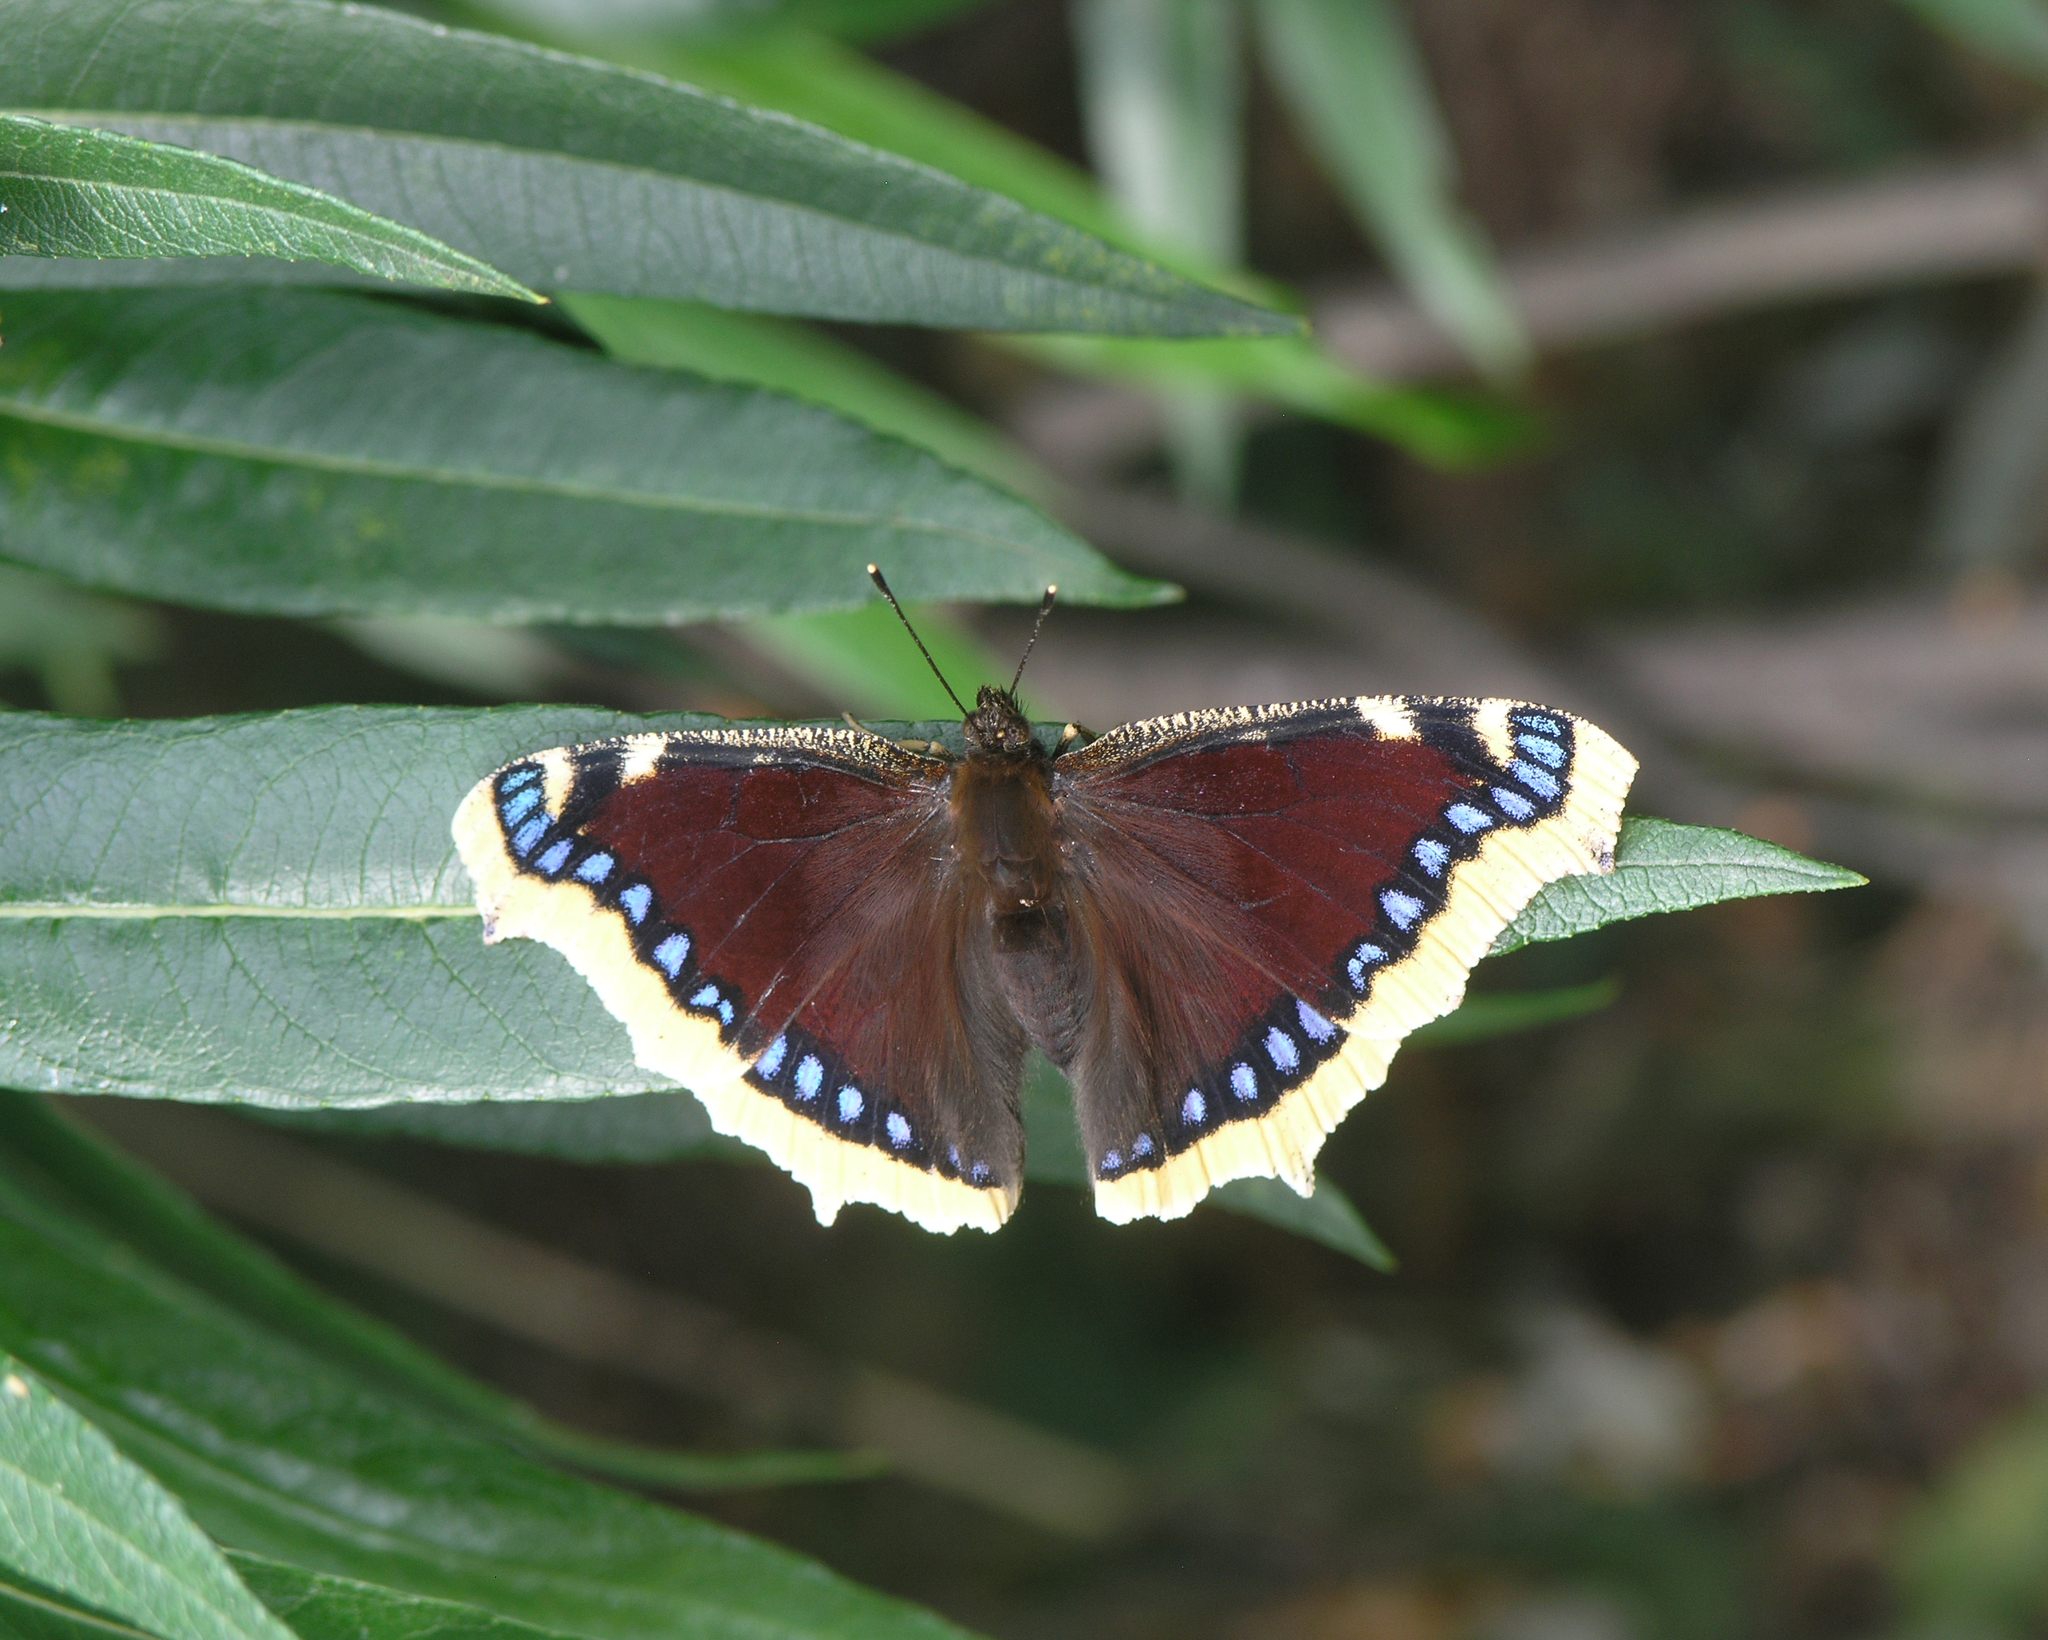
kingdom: Animalia
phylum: Arthropoda
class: Insecta
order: Lepidoptera
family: Nymphalidae
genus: Nymphalis
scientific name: Nymphalis antiopa
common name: Camberwell beauty
